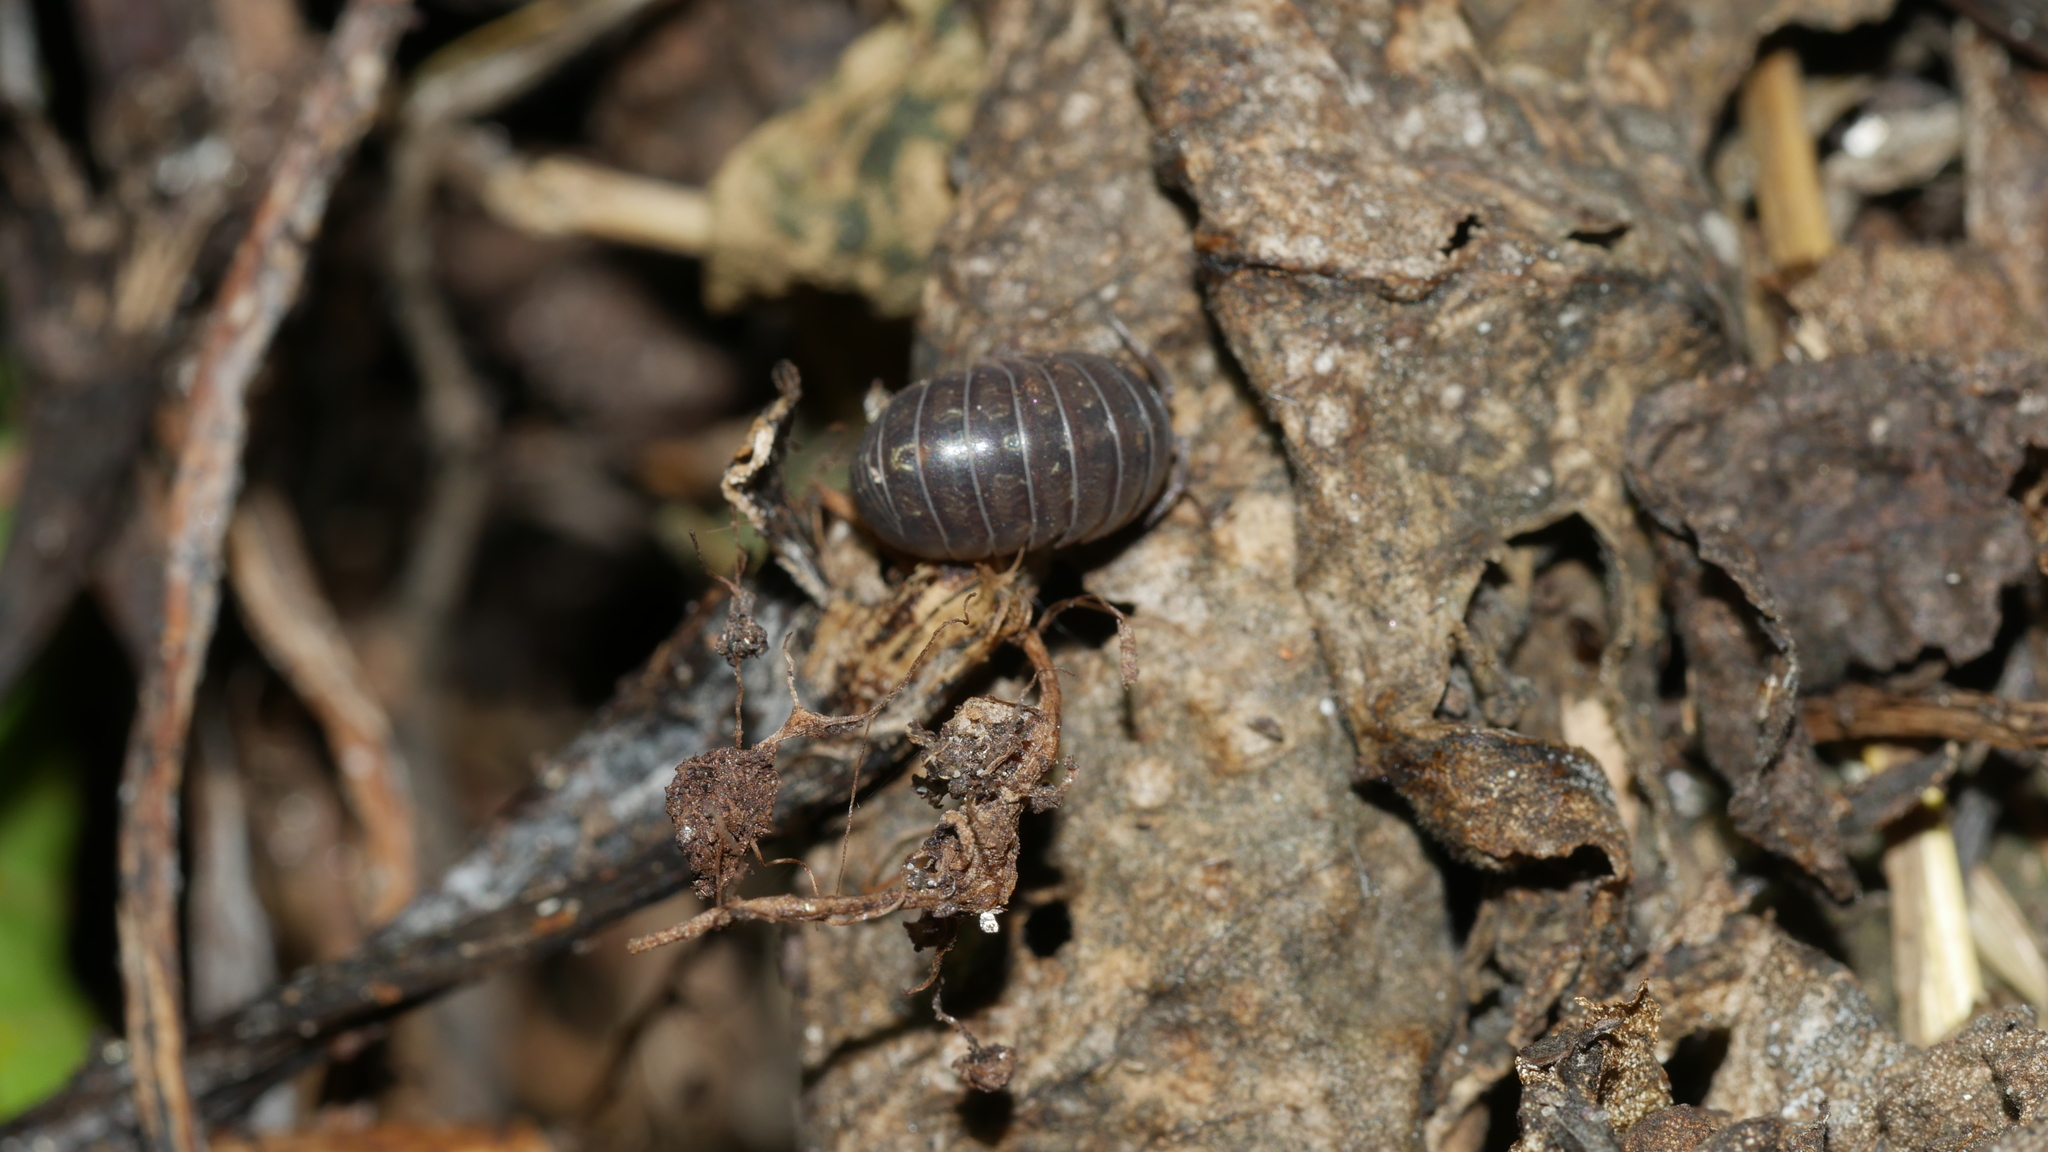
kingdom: Animalia
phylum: Arthropoda
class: Malacostraca
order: Isopoda
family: Armadillidiidae
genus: Armadillidium
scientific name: Armadillidium vulgare
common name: Common pill woodlouse
